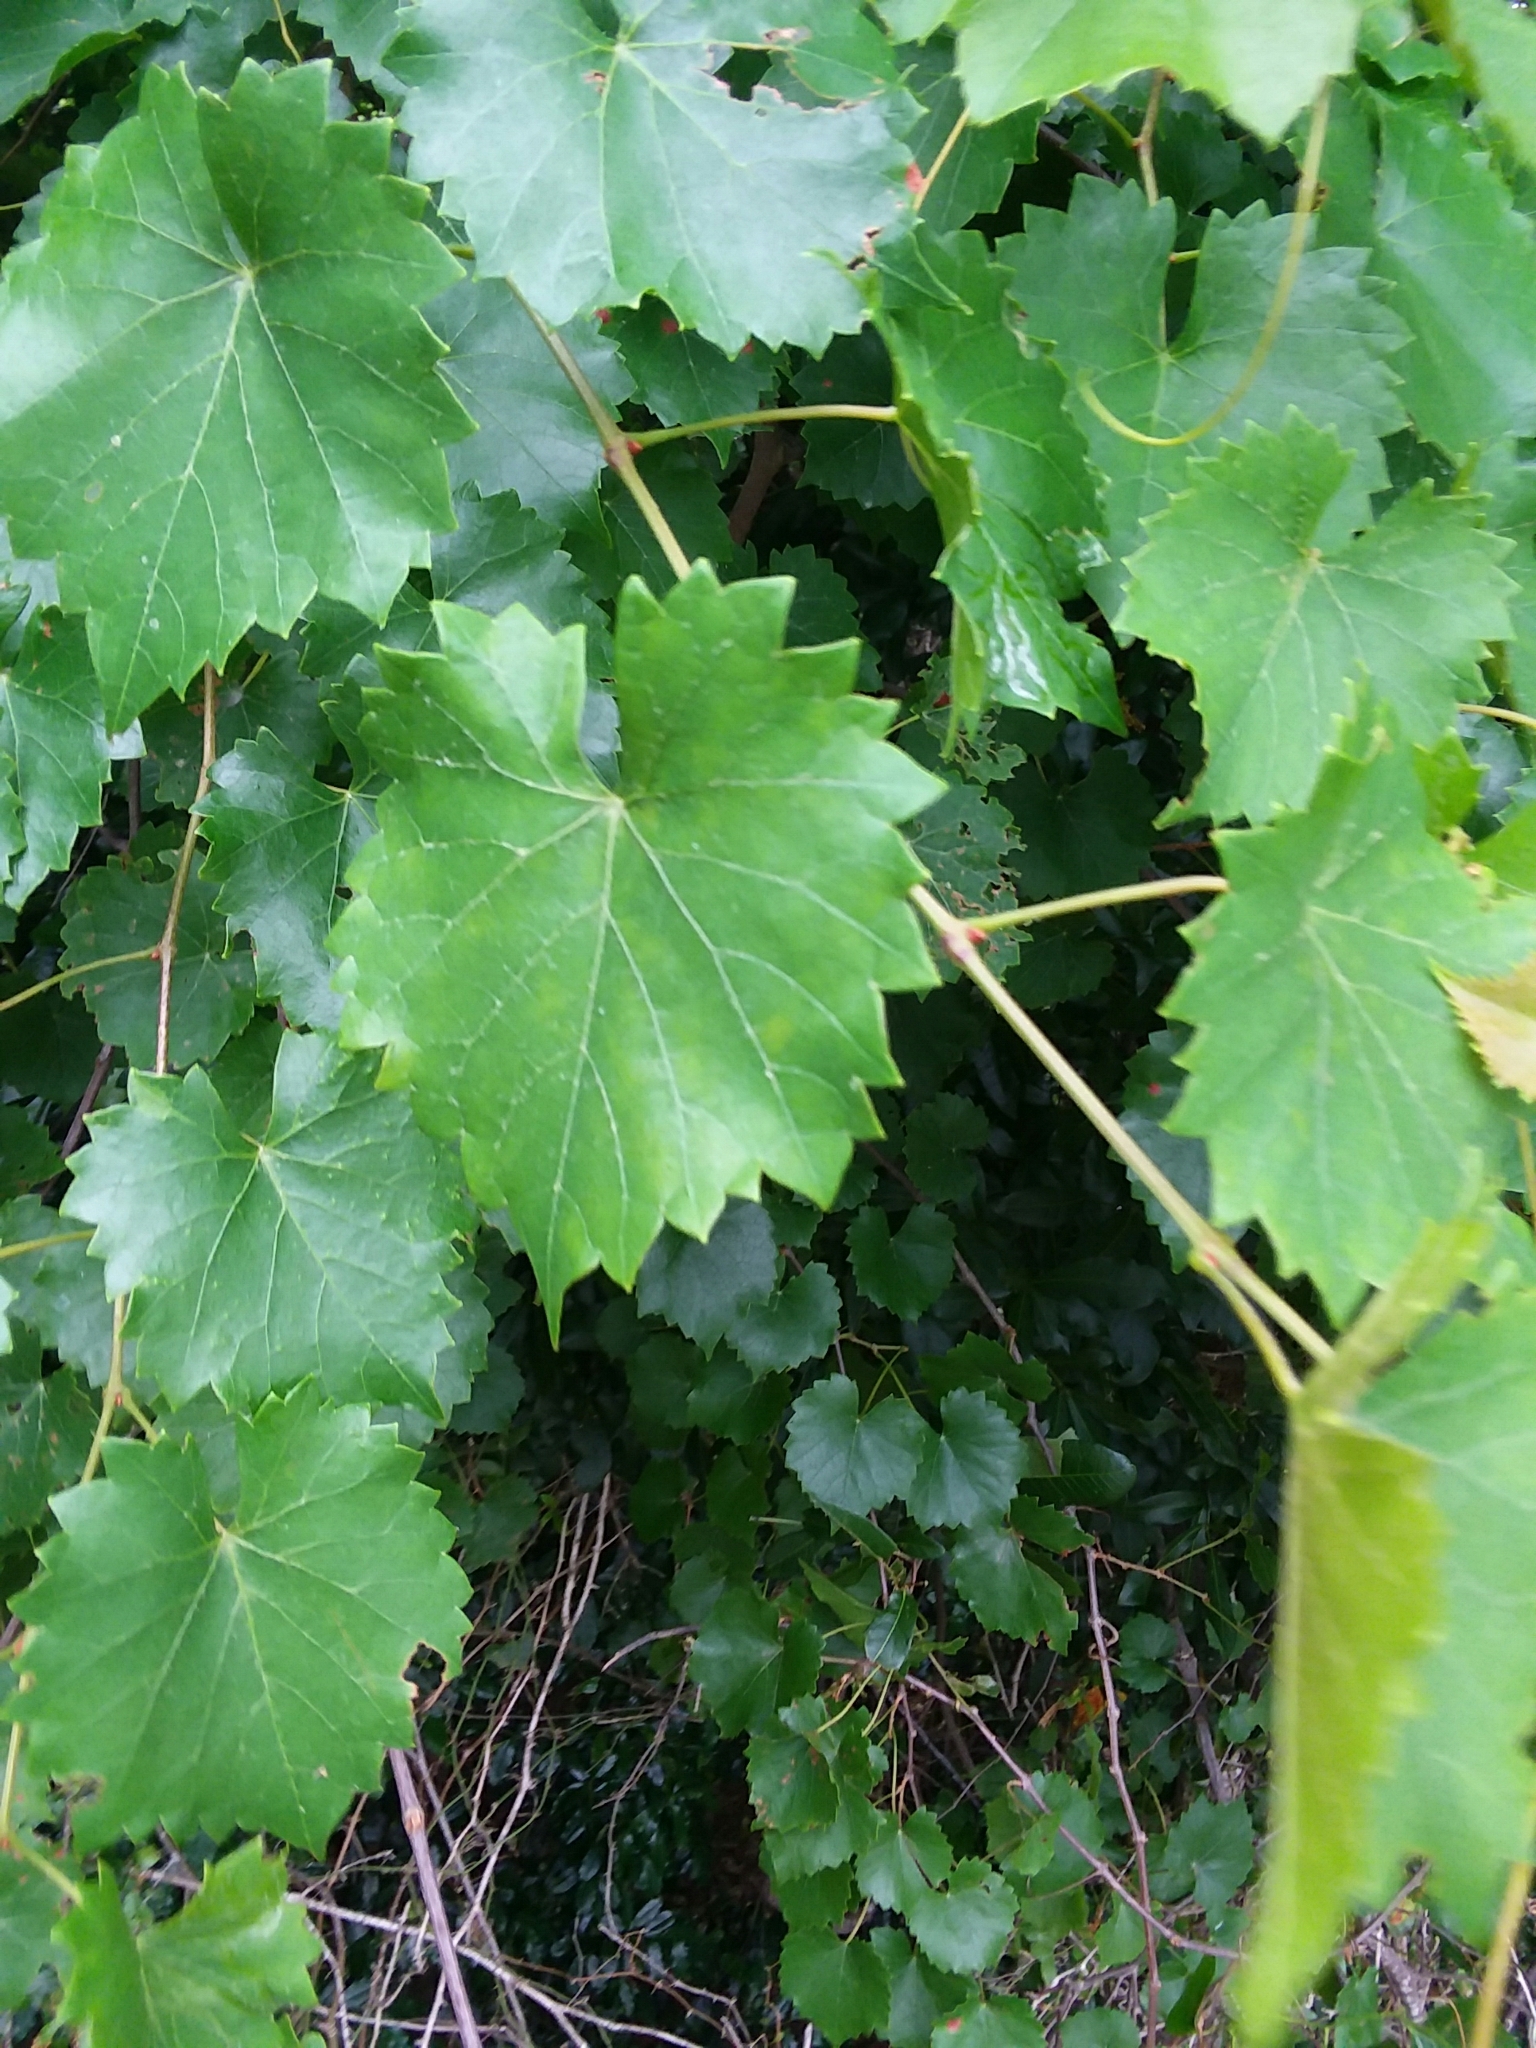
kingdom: Plantae
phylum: Tracheophyta
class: Magnoliopsida
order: Vitales
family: Vitaceae
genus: Vitis
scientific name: Vitis rotundifolia
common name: Muscadine grape
